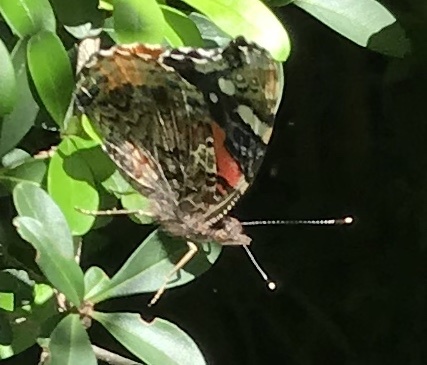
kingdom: Animalia
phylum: Arthropoda
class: Insecta
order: Lepidoptera
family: Nymphalidae
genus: Vanessa
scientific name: Vanessa atalanta
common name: Red admiral
